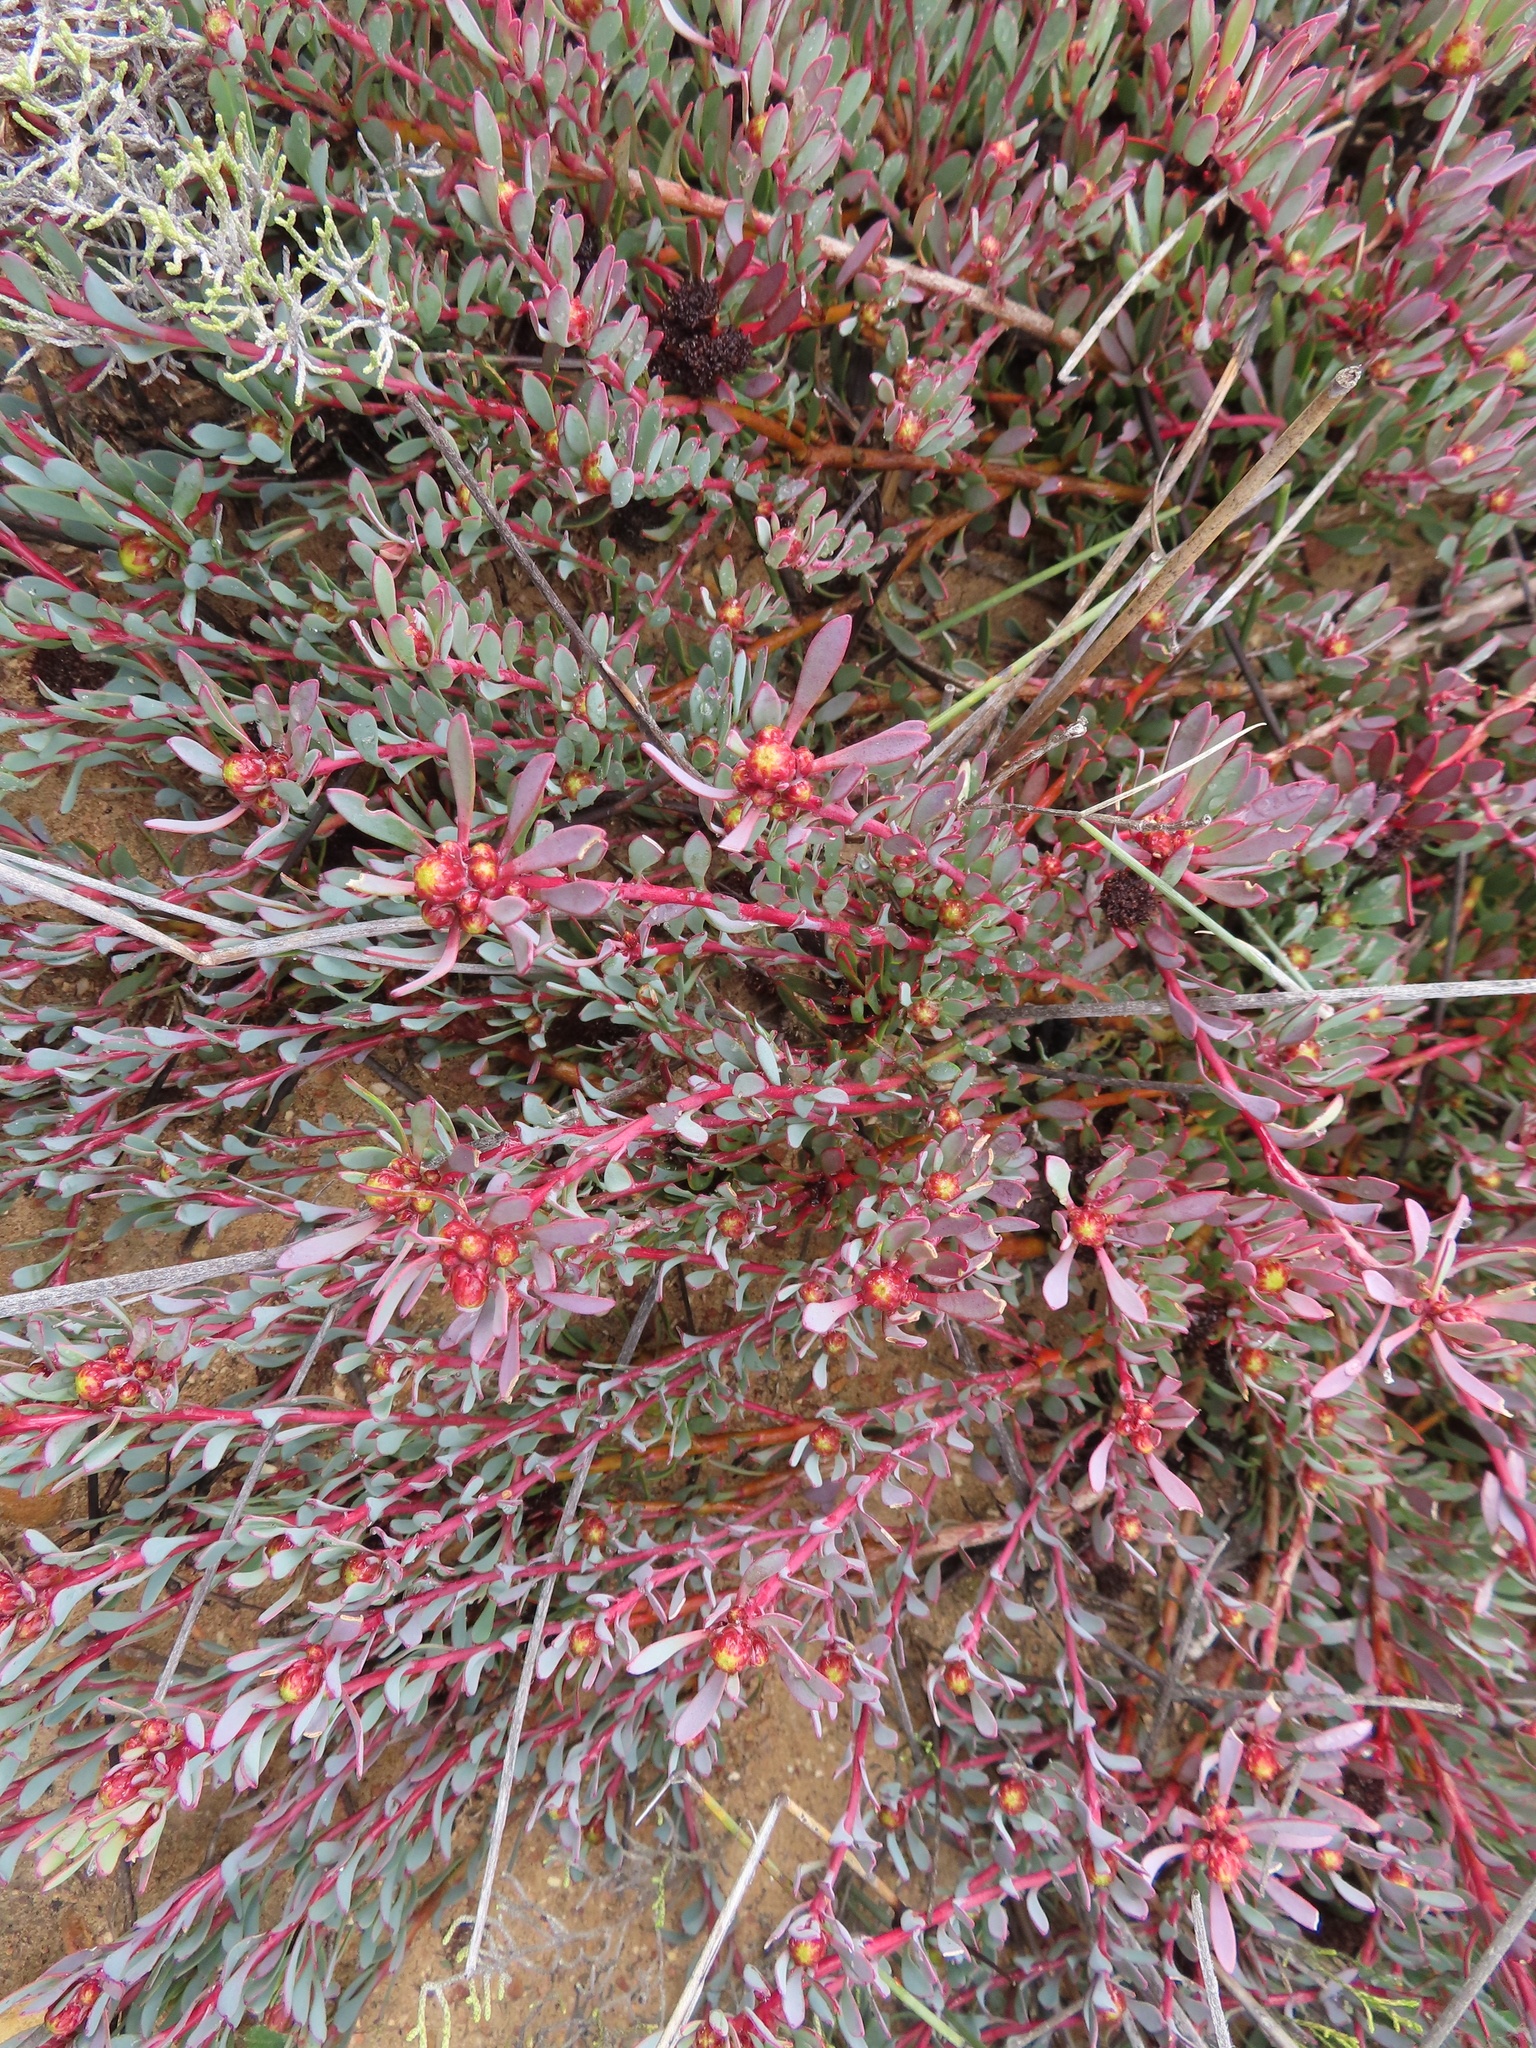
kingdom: Plantae
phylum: Tracheophyta
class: Magnoliopsida
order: Proteales
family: Proteaceae
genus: Leucadendron
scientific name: Leucadendron nitidum
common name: Bokkeveld conebush
